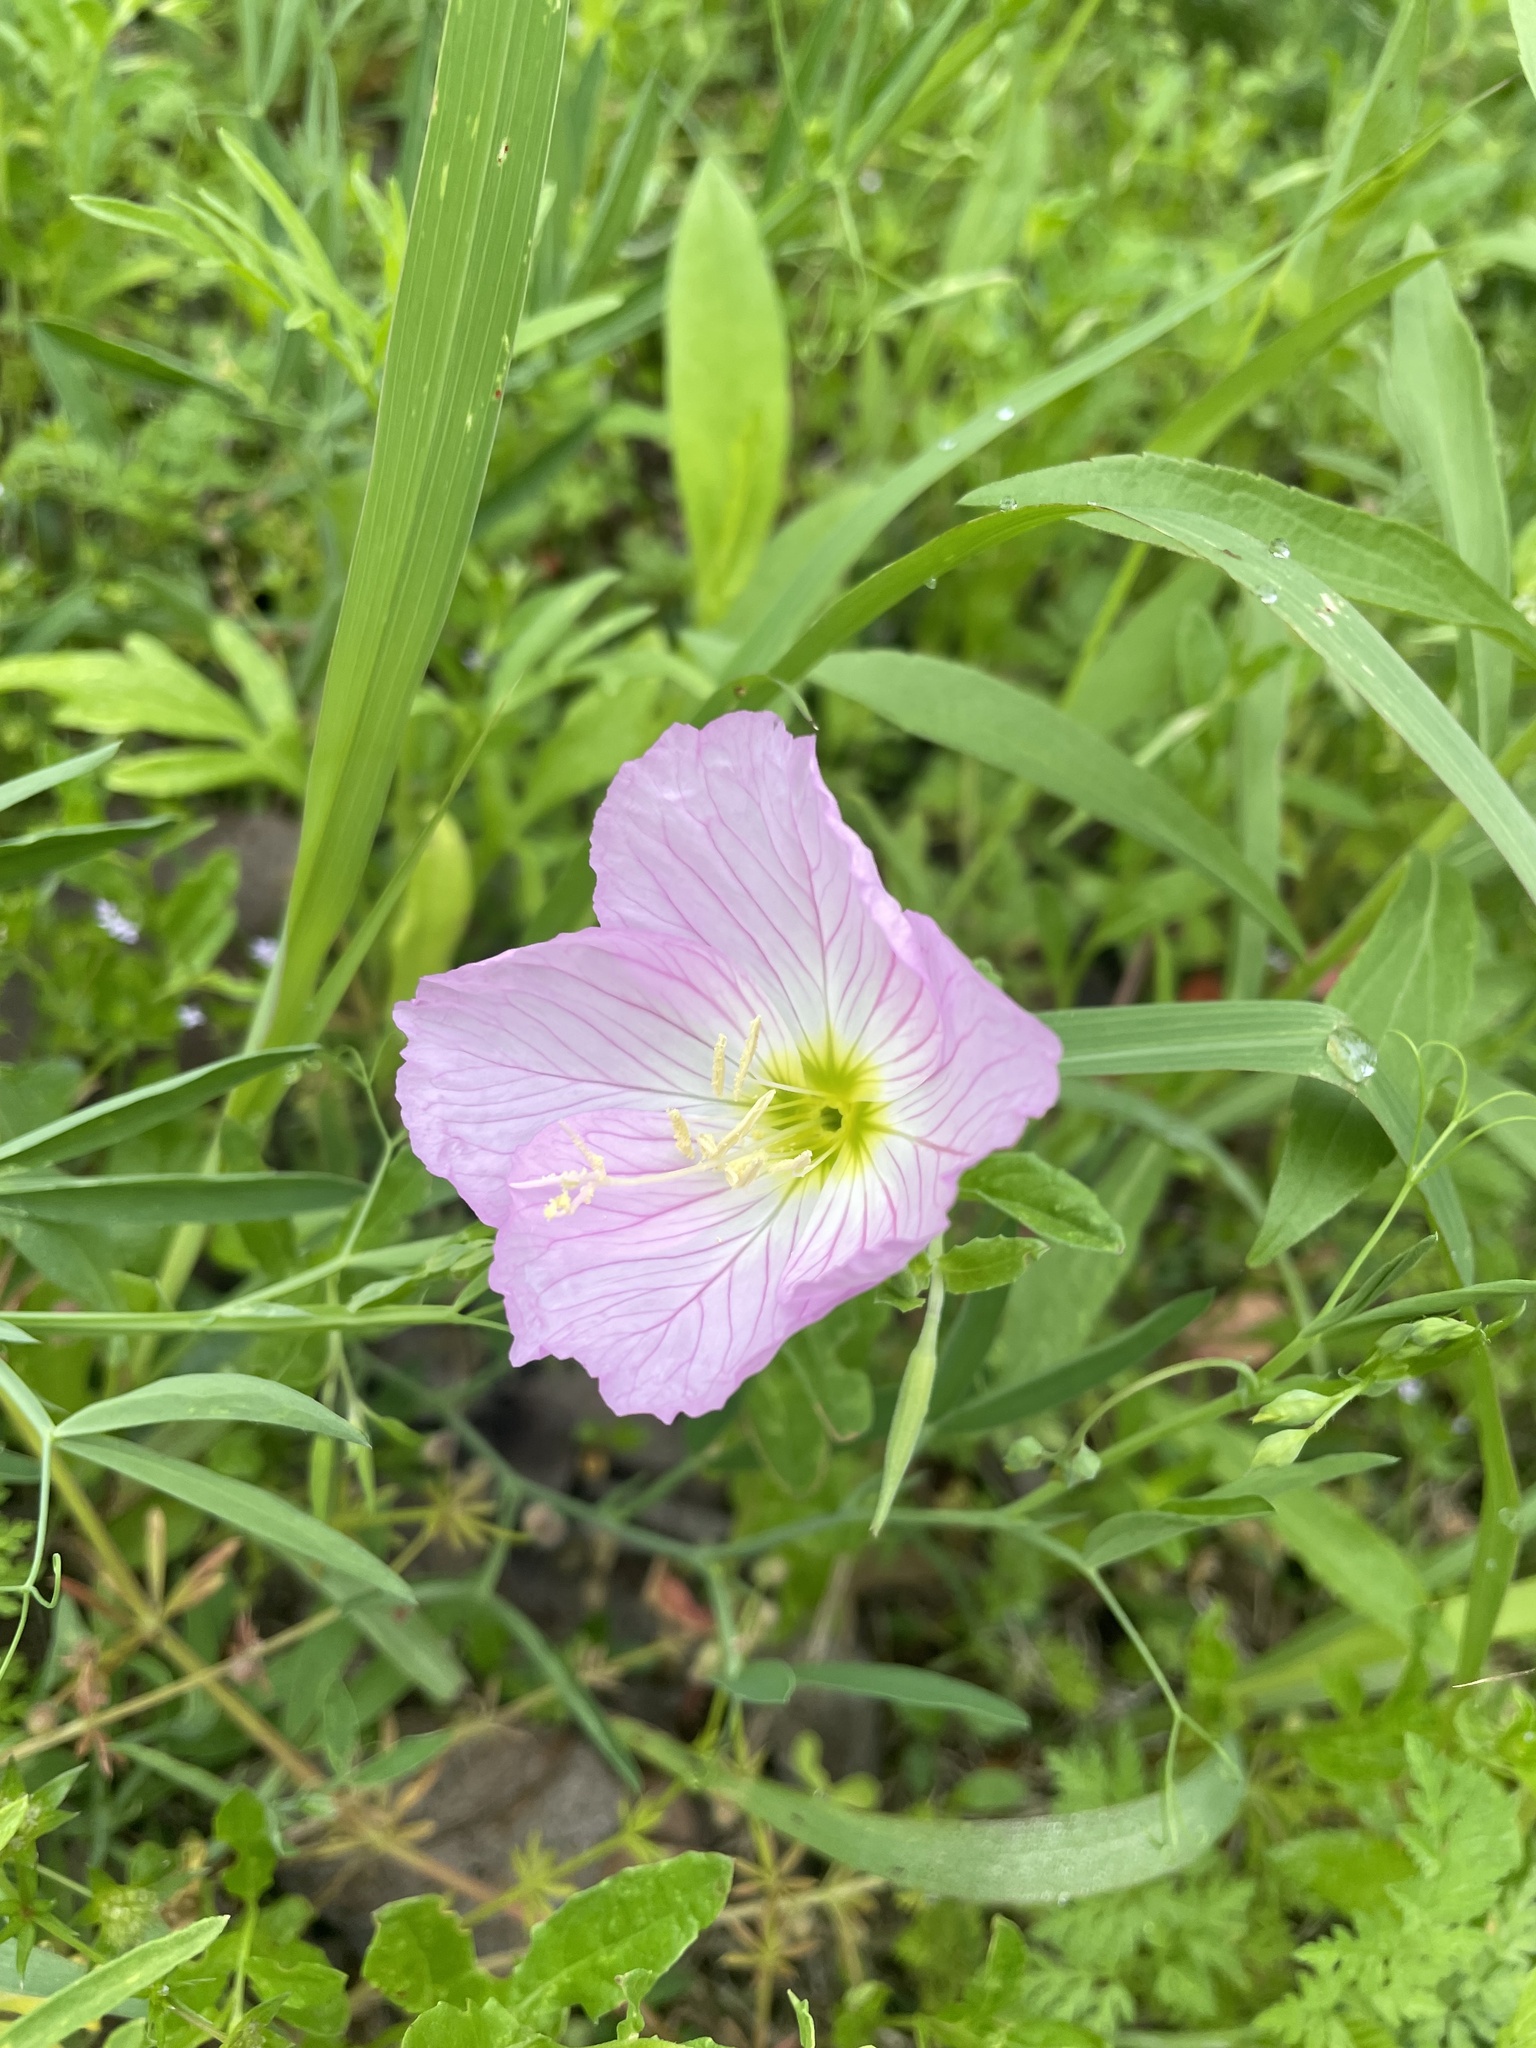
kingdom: Plantae
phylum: Tracheophyta
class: Magnoliopsida
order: Myrtales
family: Onagraceae
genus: Oenothera
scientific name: Oenothera speciosa
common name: White evening-primrose
